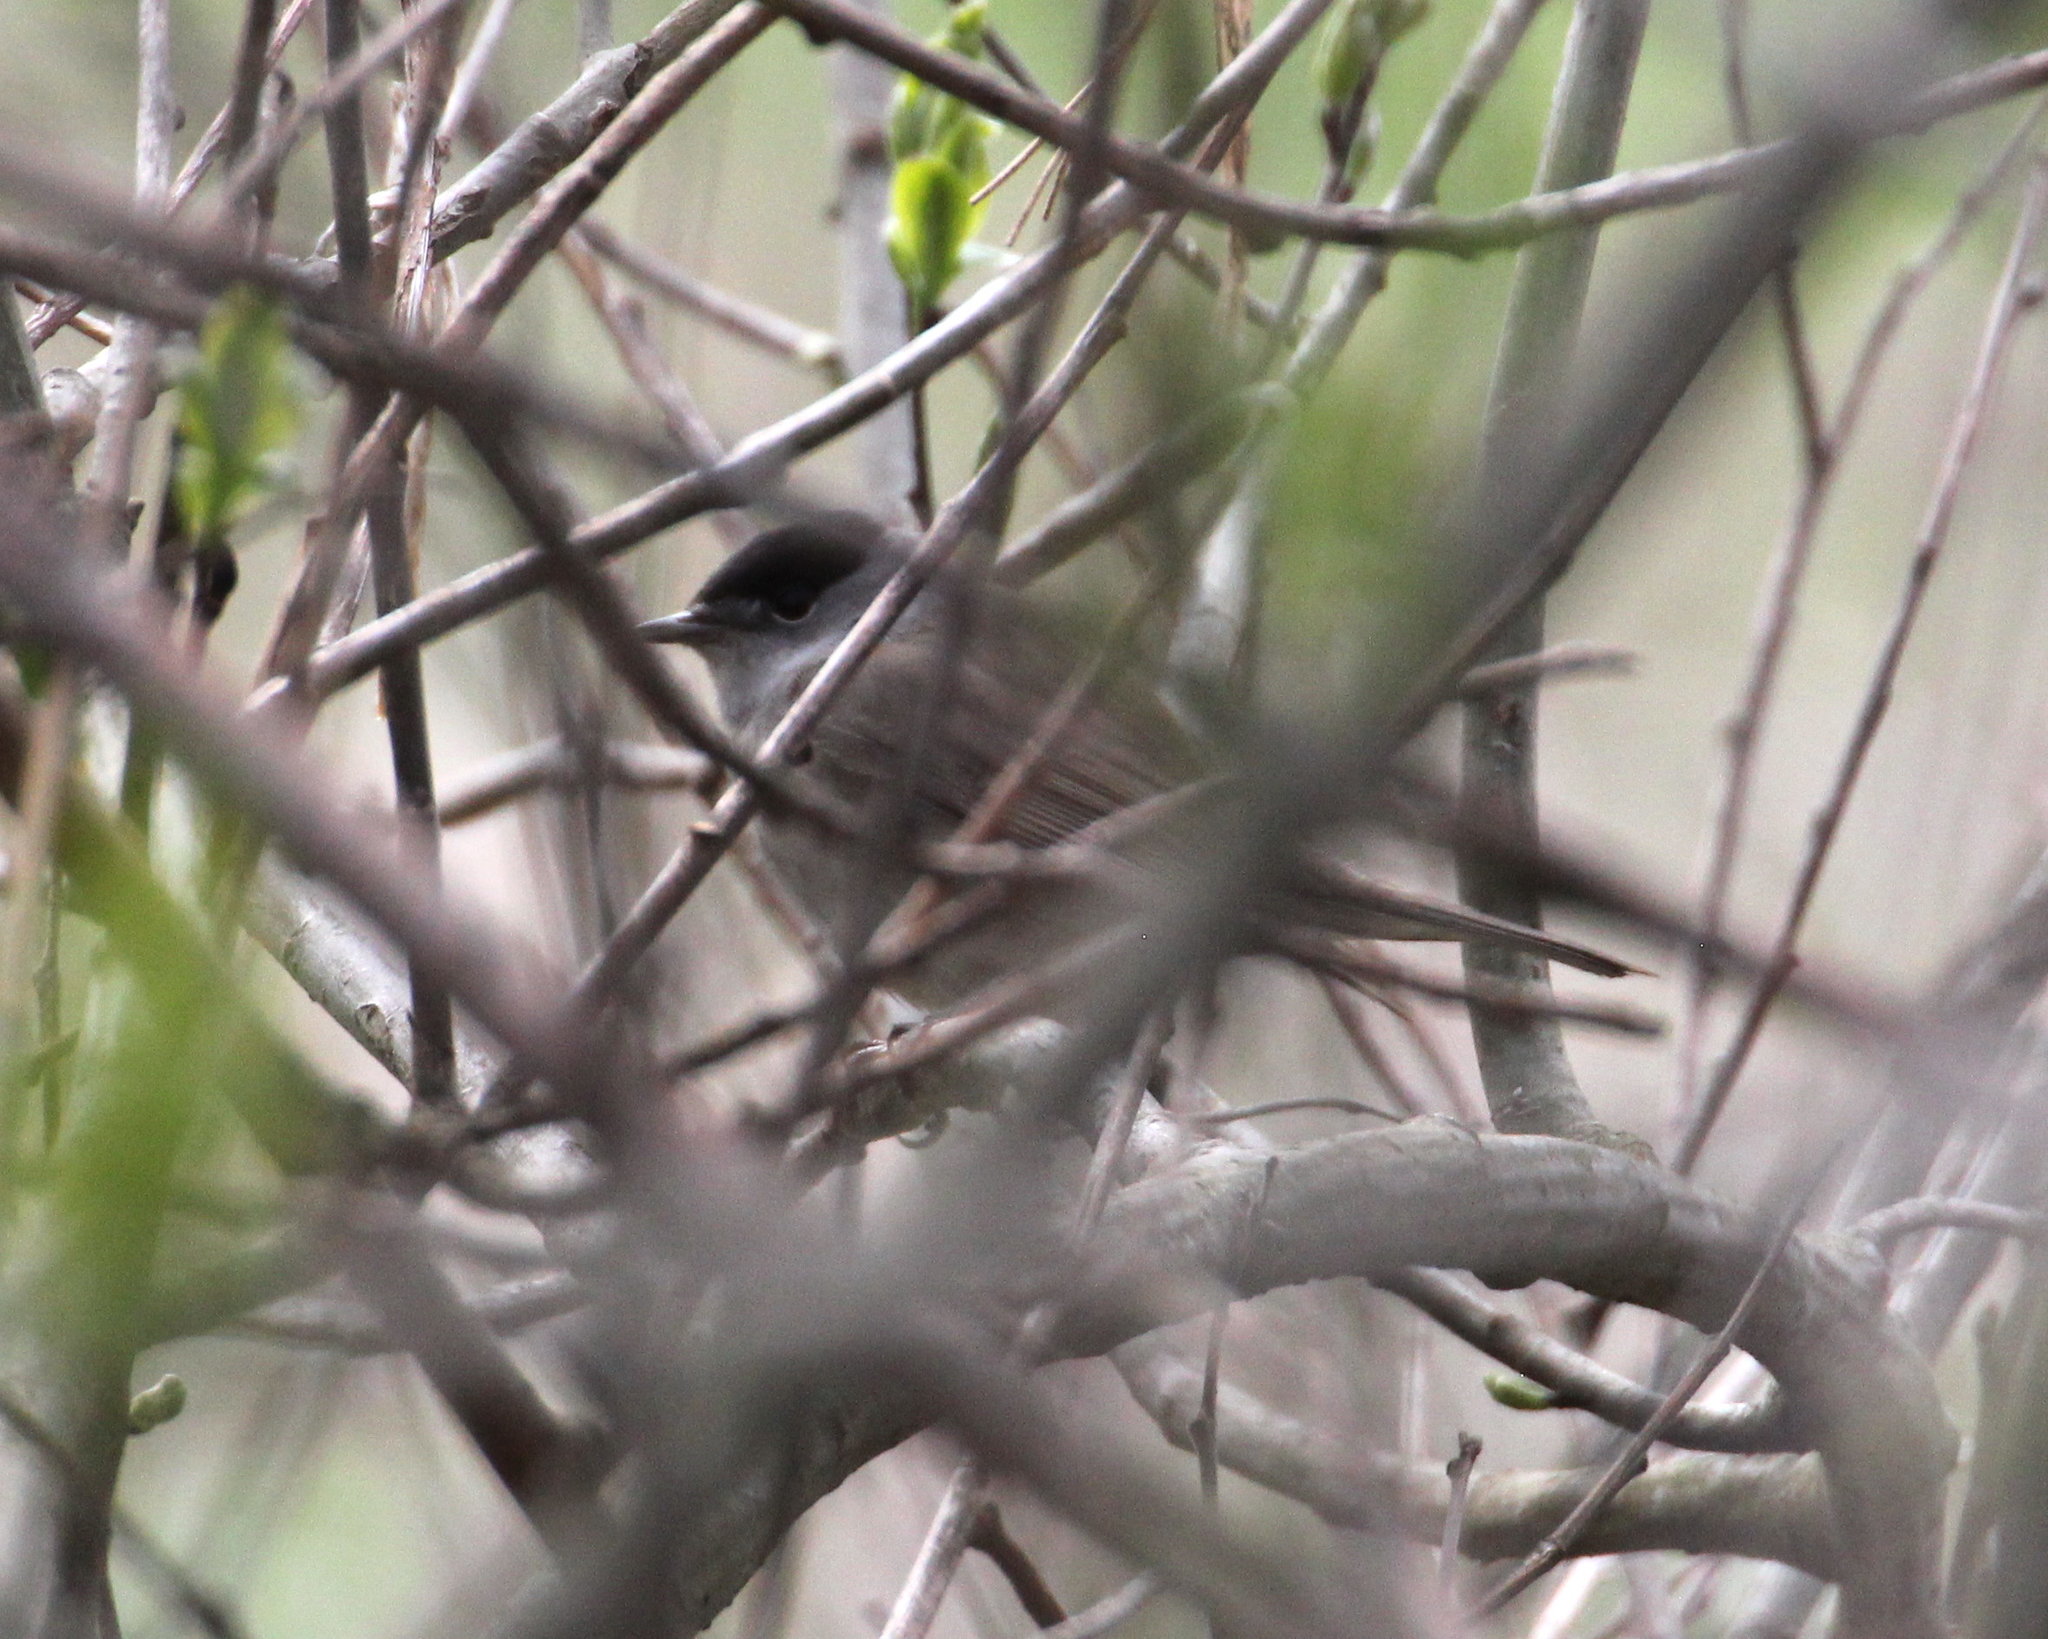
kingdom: Animalia
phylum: Chordata
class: Aves
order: Passeriformes
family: Sylviidae
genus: Sylvia
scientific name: Sylvia atricapilla
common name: Eurasian blackcap
